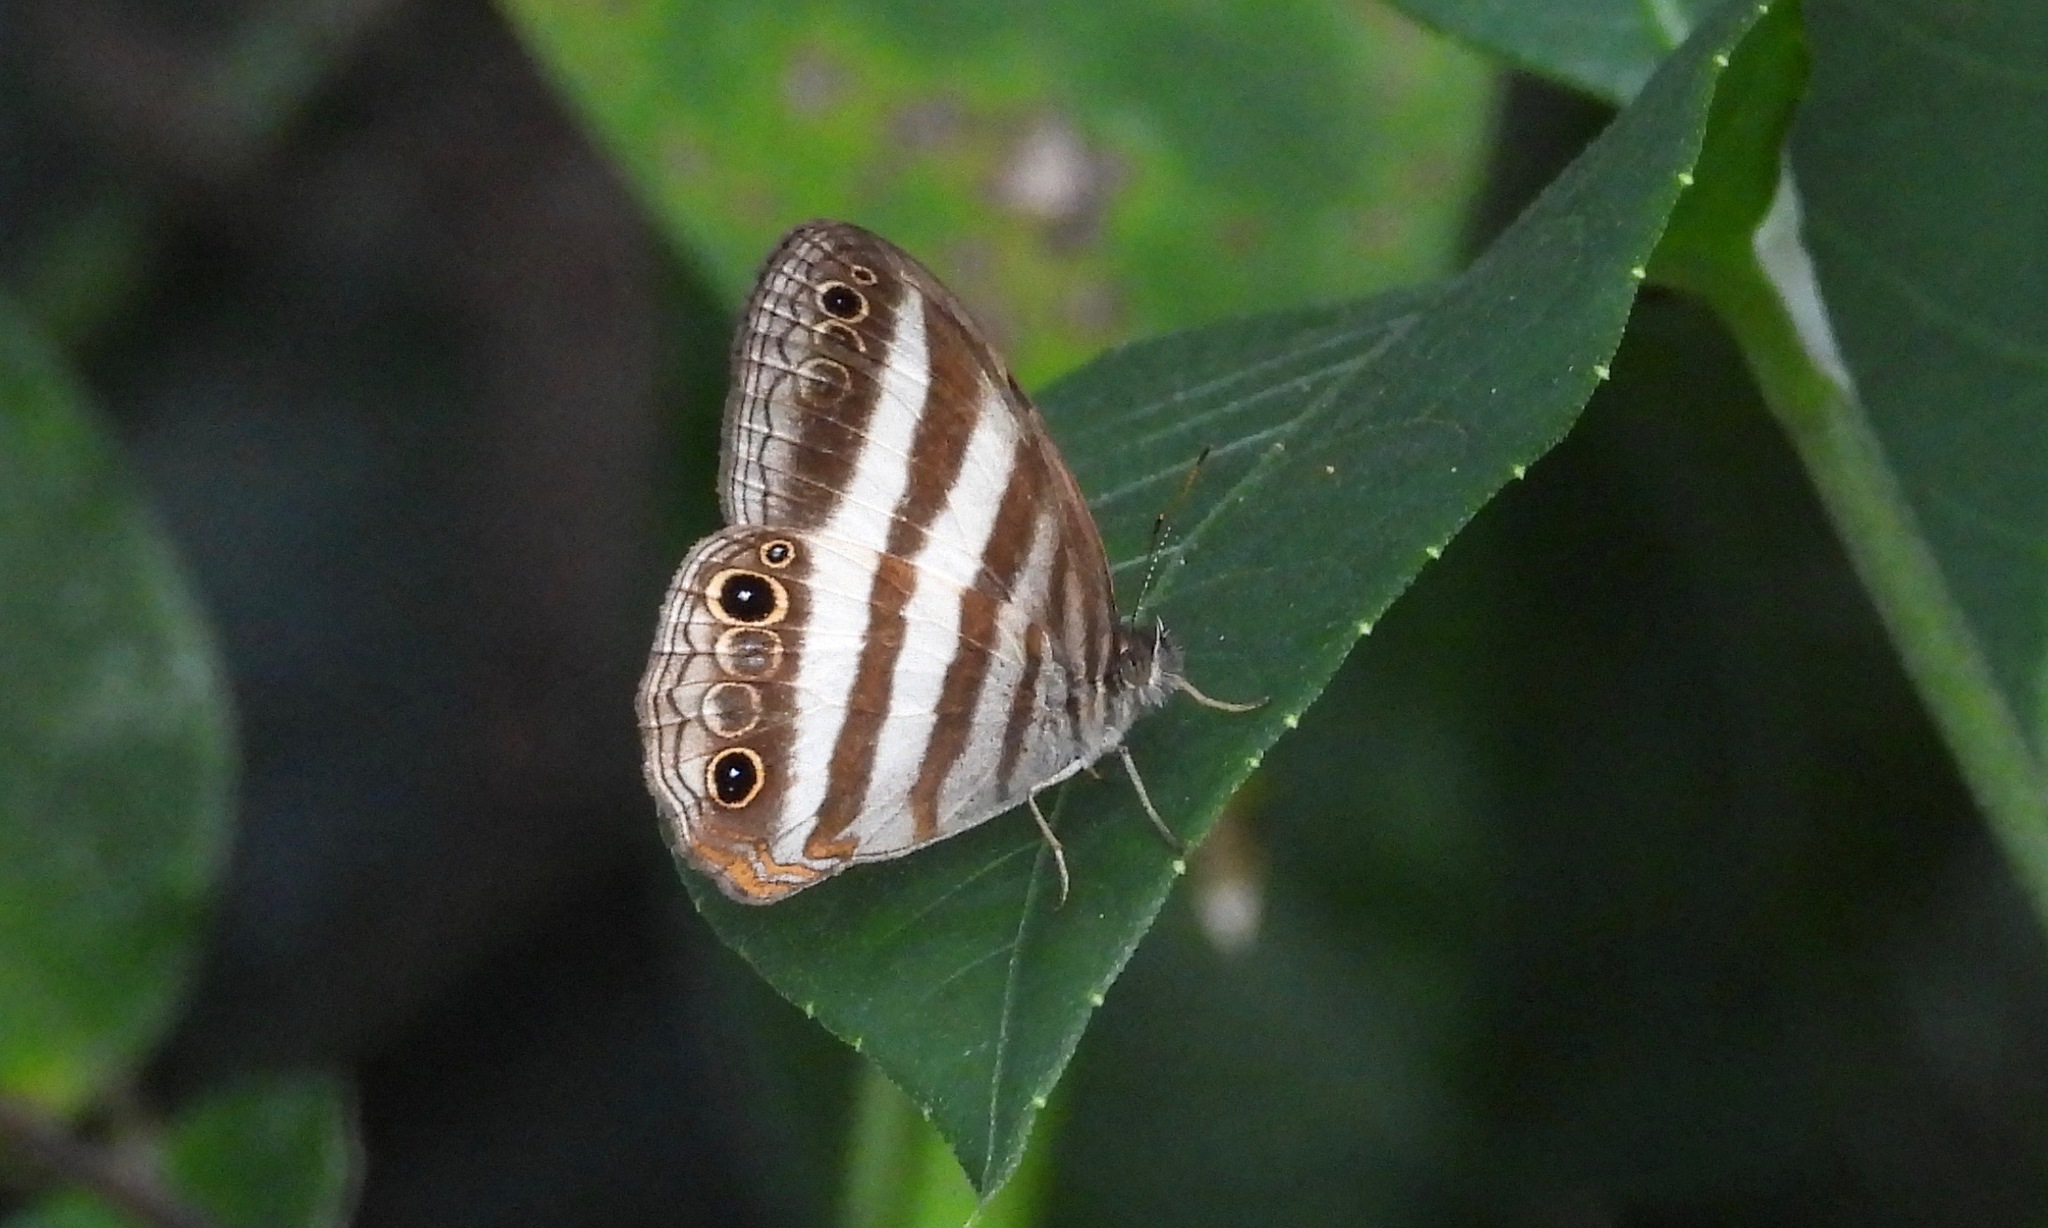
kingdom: Animalia
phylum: Arthropoda
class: Insecta
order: Lepidoptera
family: Nymphalidae
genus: Pareuptychia
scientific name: Pareuptychia hesione
